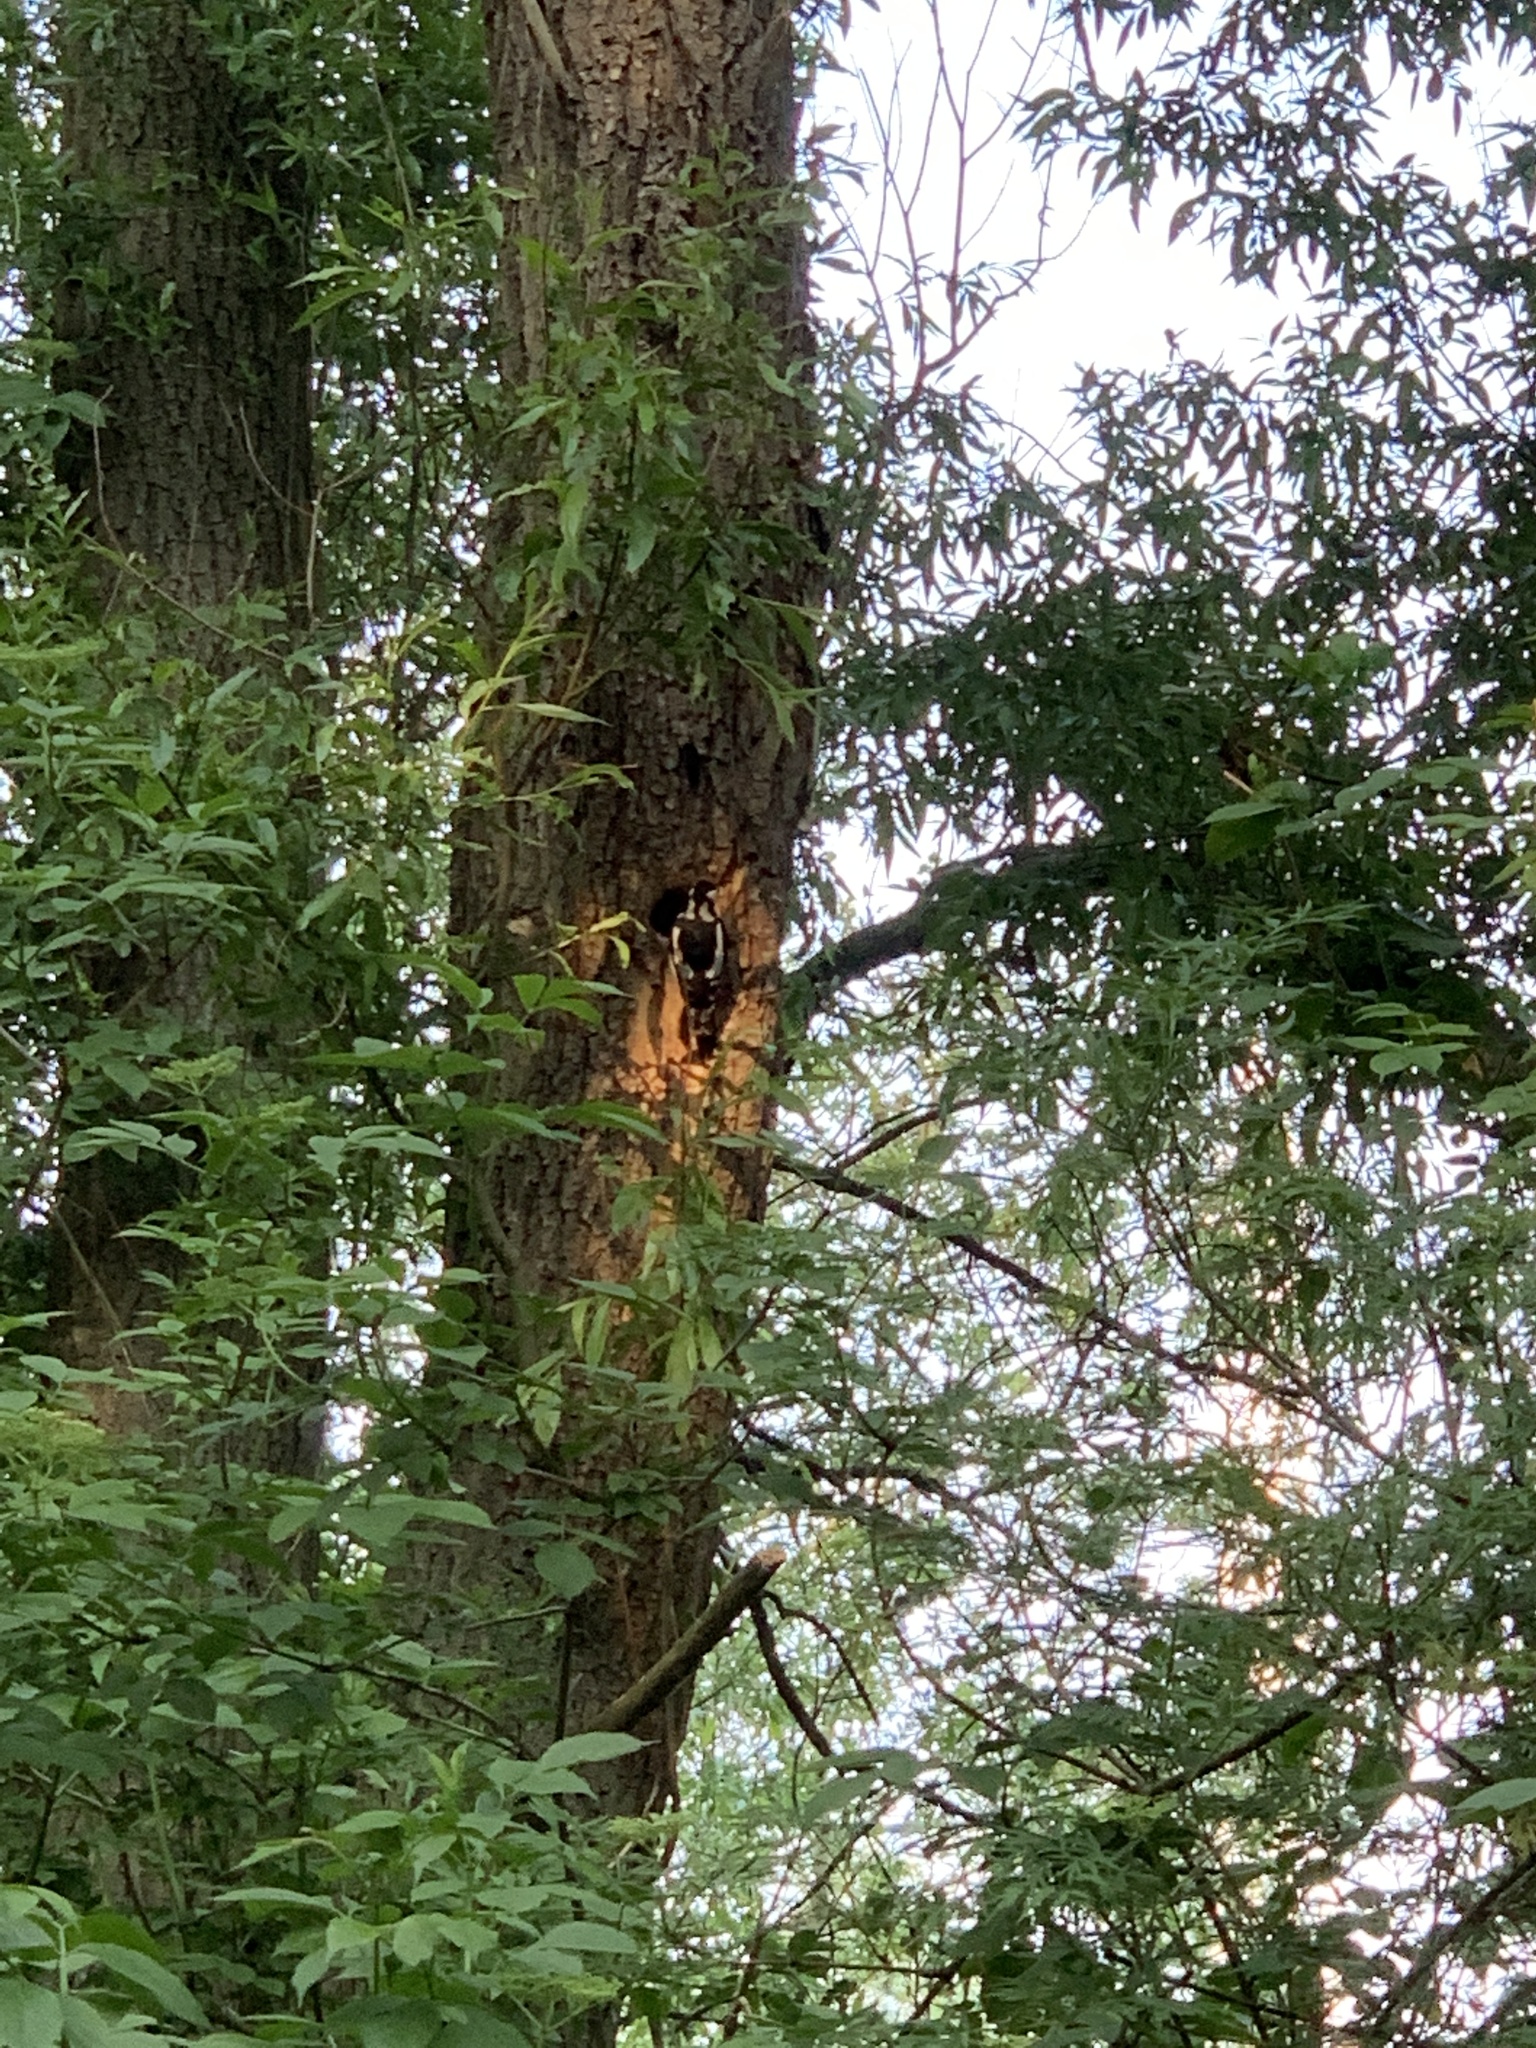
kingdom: Animalia
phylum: Chordata
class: Aves
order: Piciformes
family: Picidae
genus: Dendrocopos
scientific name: Dendrocopos major
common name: Great spotted woodpecker
